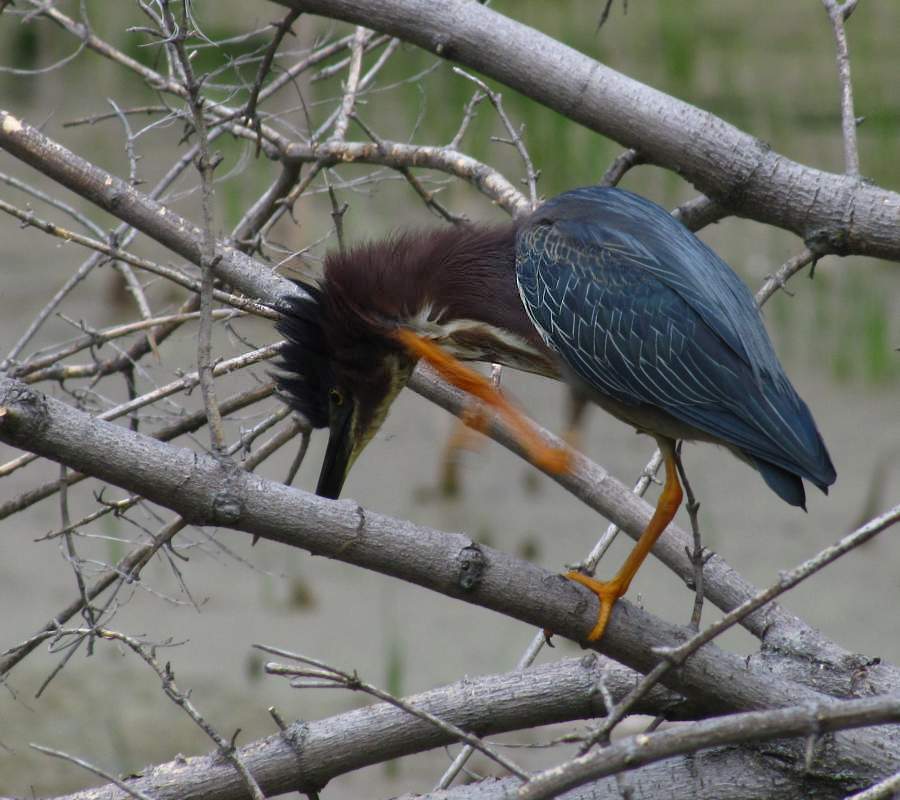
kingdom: Animalia
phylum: Chordata
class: Aves
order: Pelecaniformes
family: Ardeidae
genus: Butorides
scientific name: Butorides virescens
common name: Green heron
